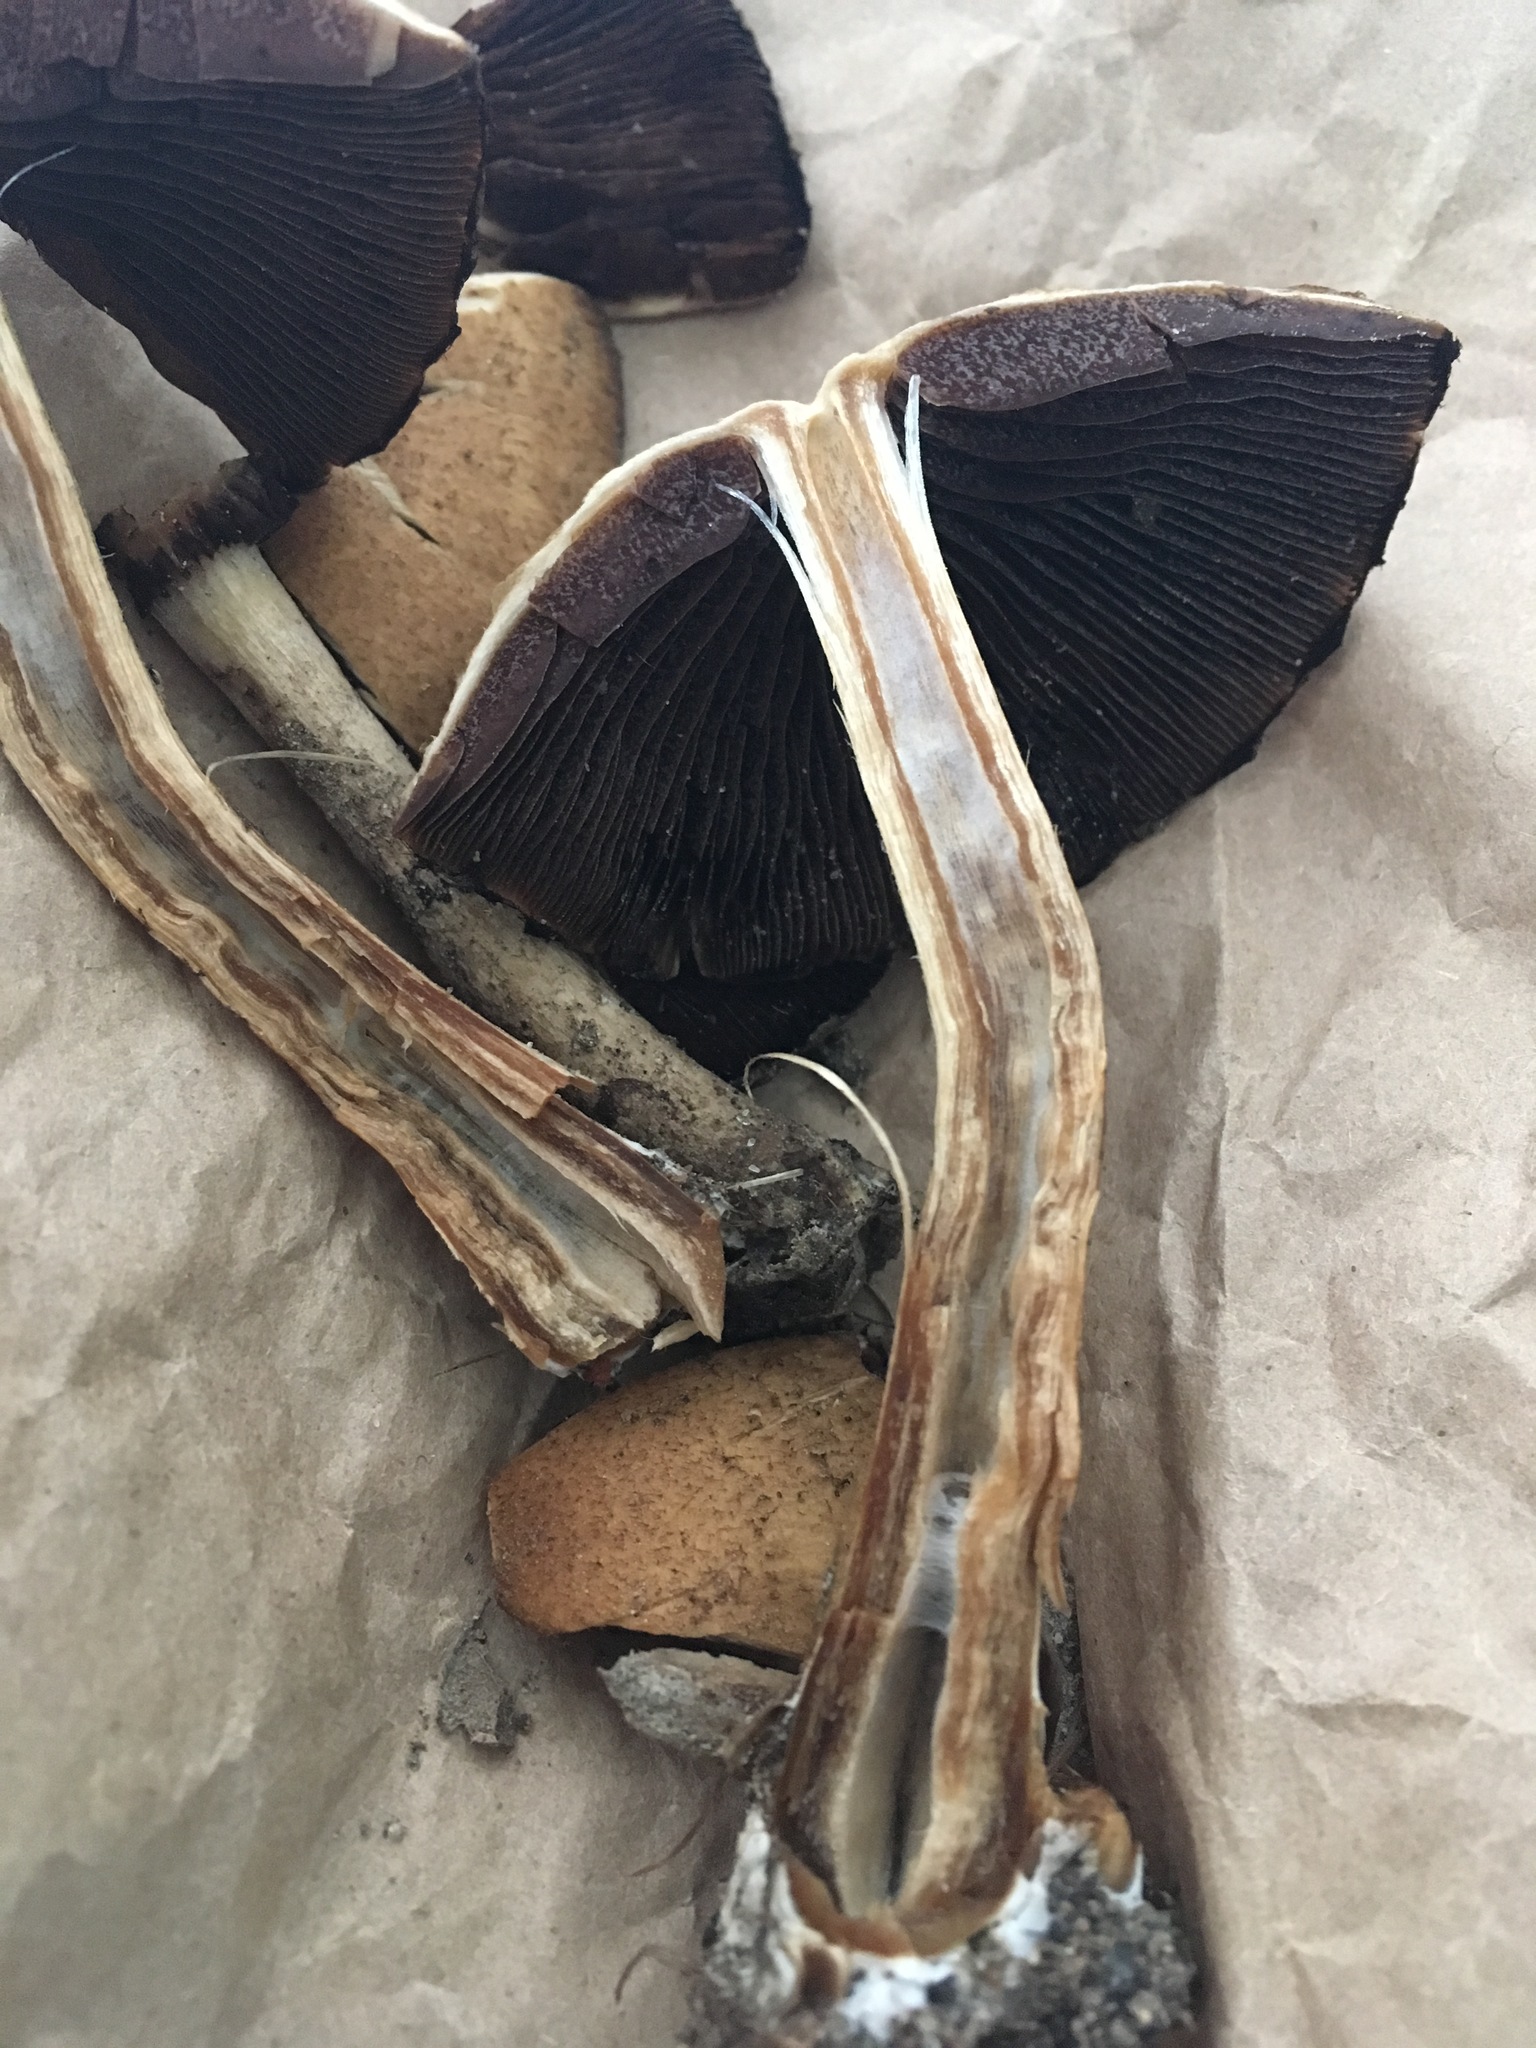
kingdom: Fungi
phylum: Basidiomycota
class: Agaricomycetes
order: Agaricales
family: Psathyrellaceae
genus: Lacrymaria
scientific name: Lacrymaria lacrymabunda
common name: Weeping widow
